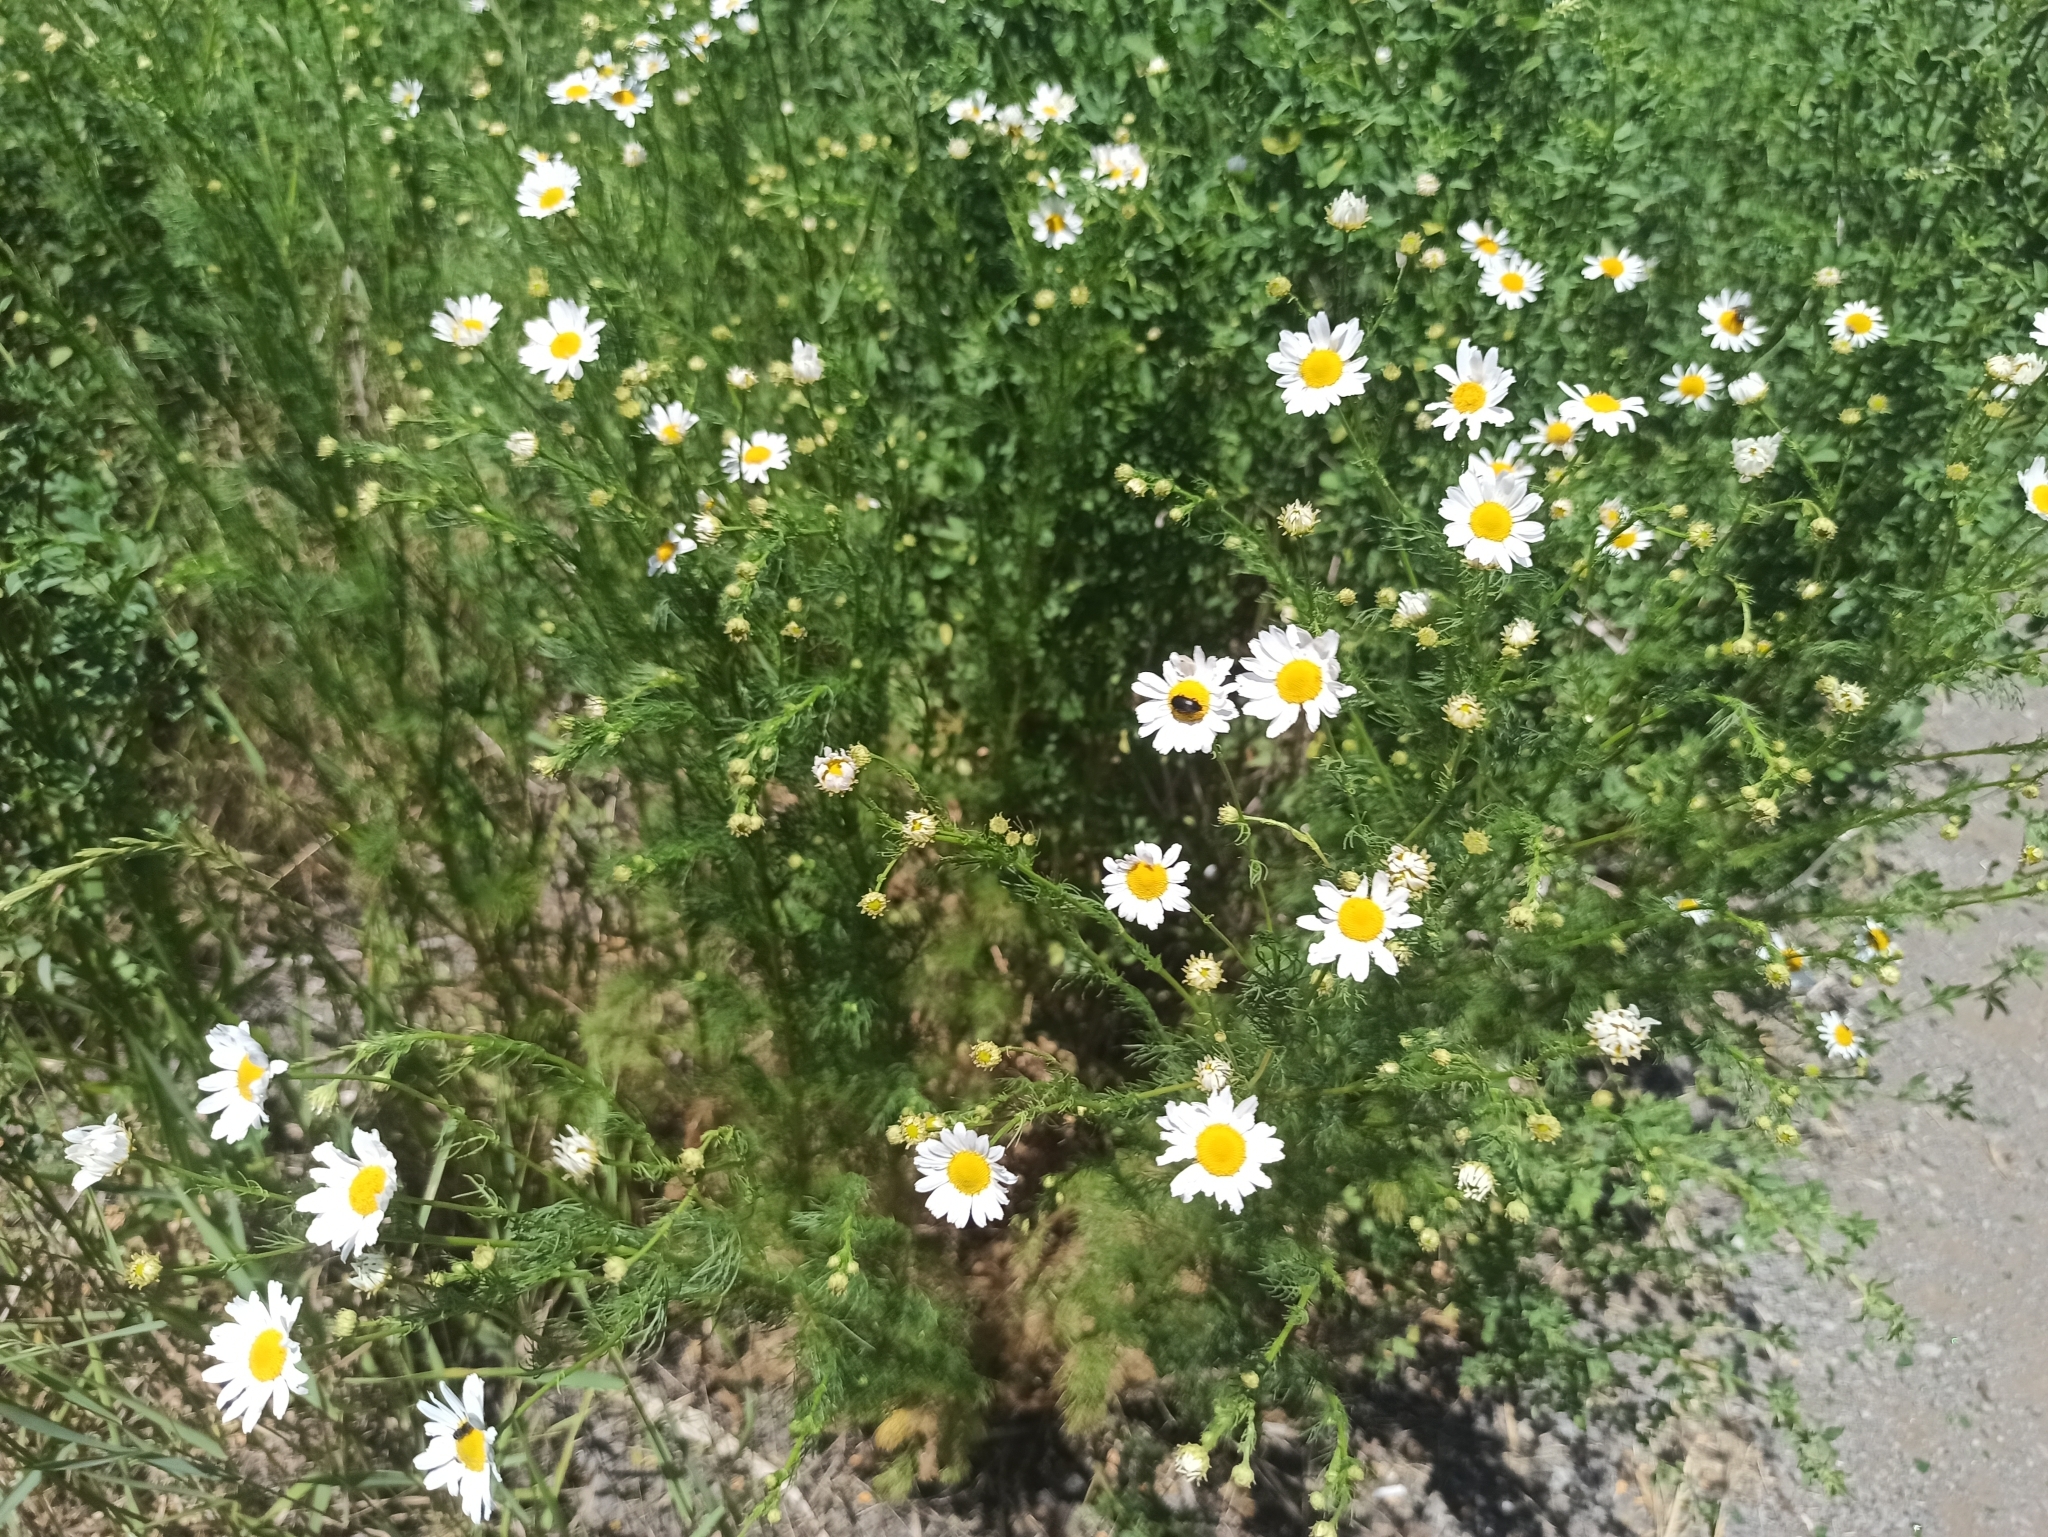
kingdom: Plantae
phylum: Tracheophyta
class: Magnoliopsida
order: Asterales
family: Asteraceae
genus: Tripleurospermum
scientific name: Tripleurospermum inodorum
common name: Scentless mayweed
